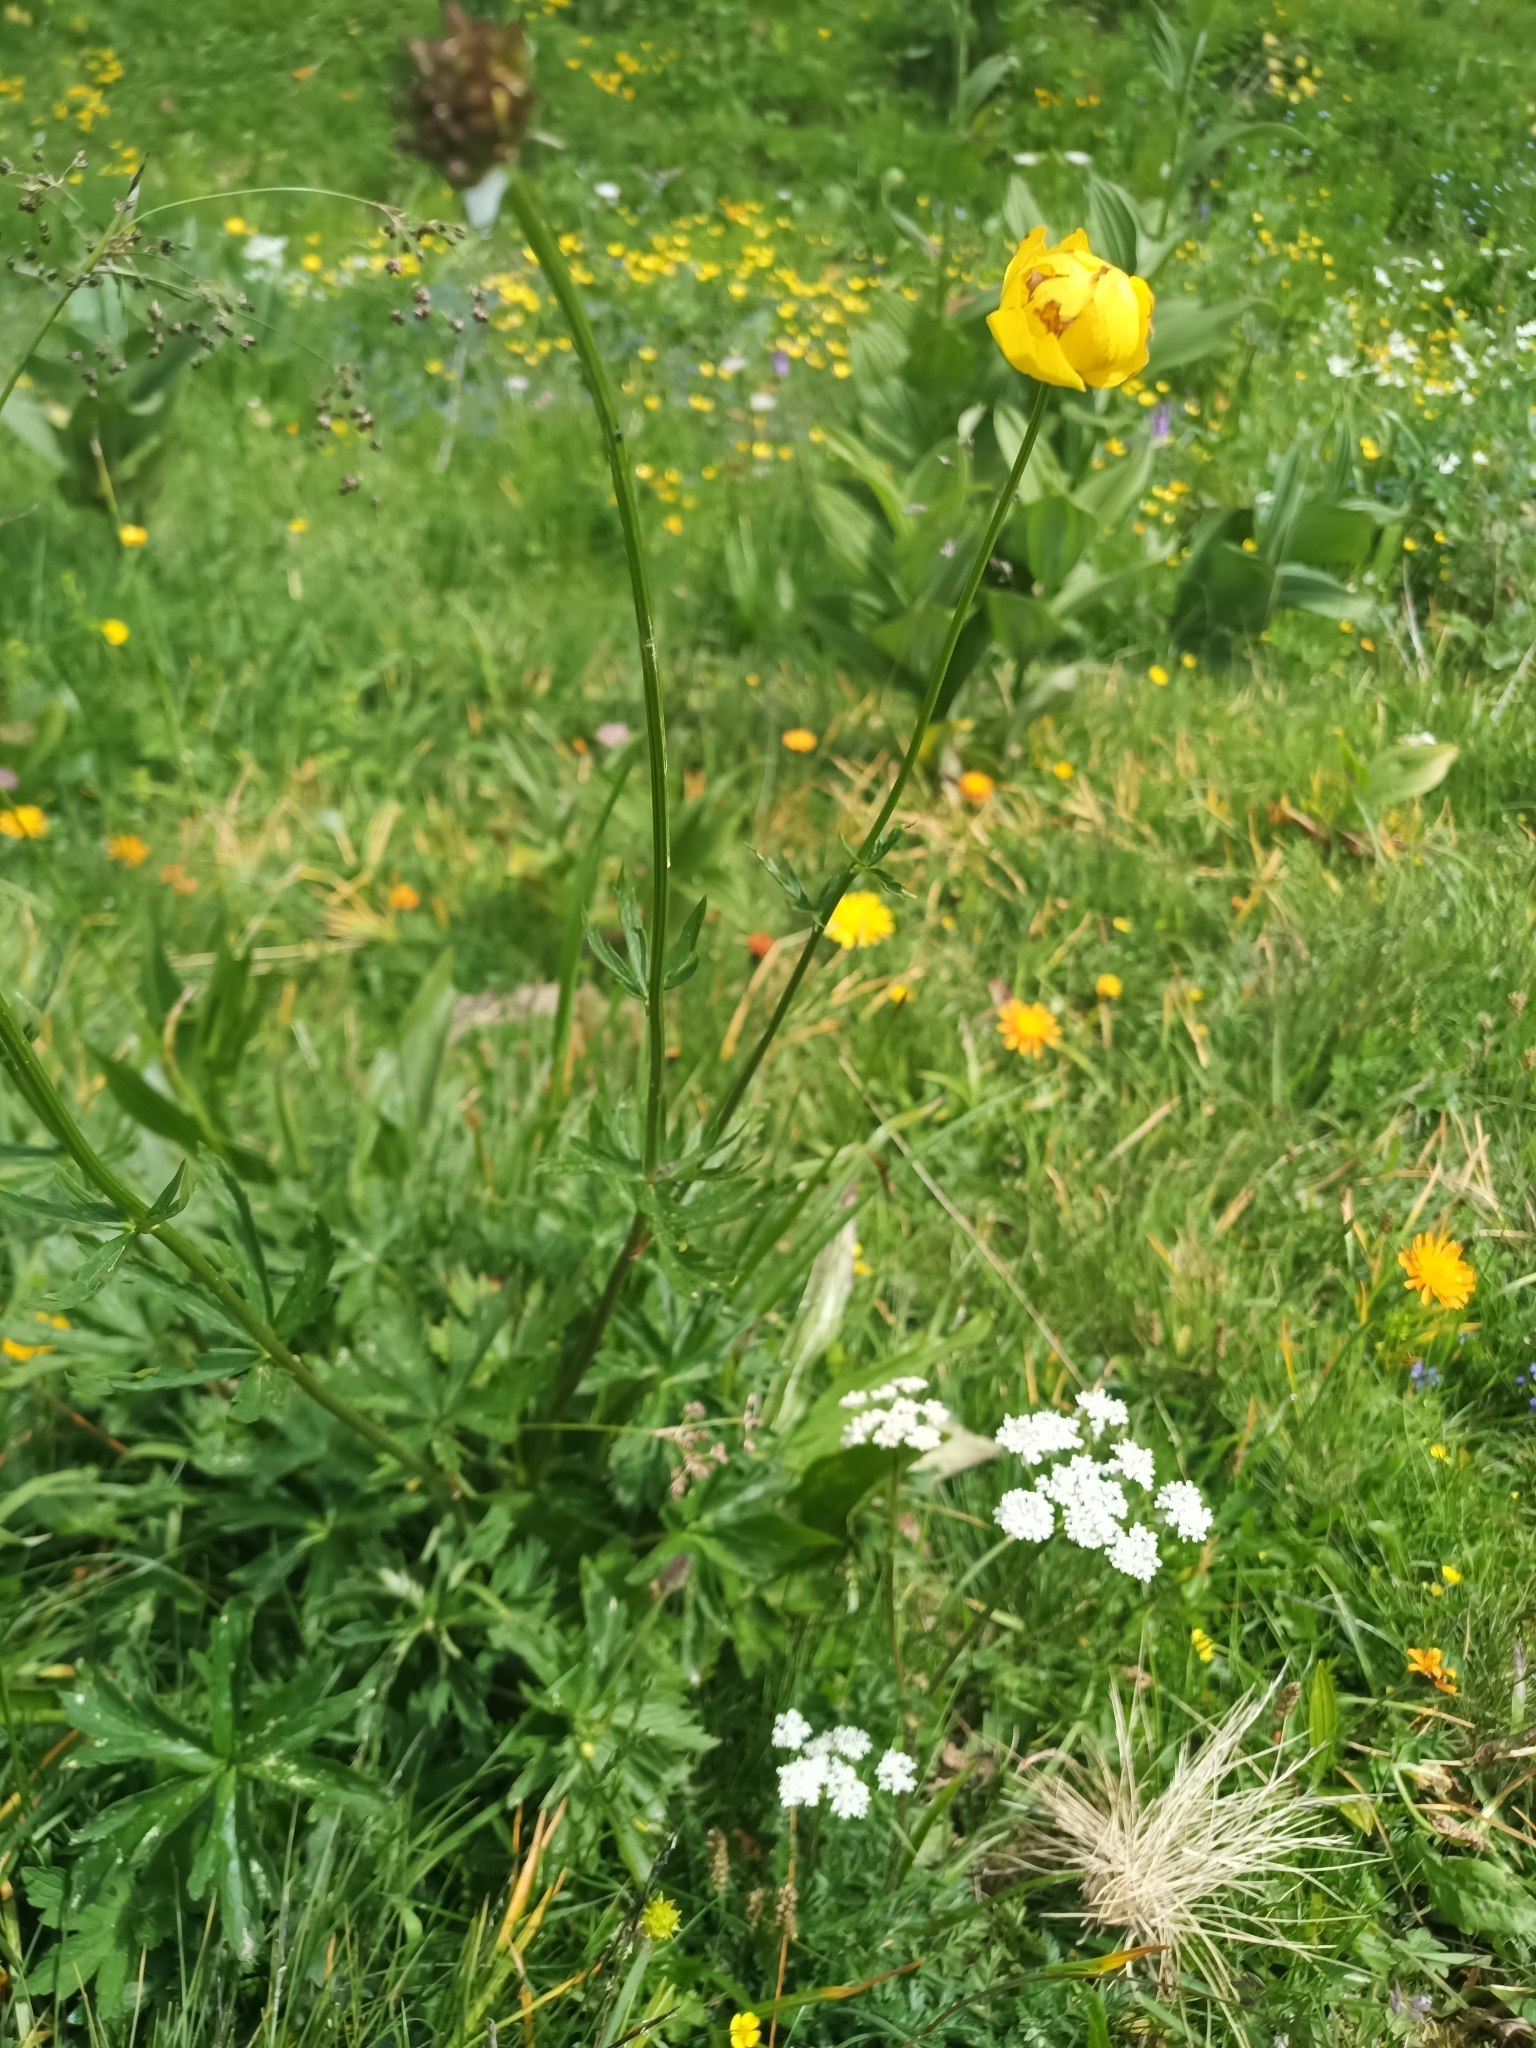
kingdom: Plantae
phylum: Tracheophyta
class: Magnoliopsida
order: Ranunculales
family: Ranunculaceae
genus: Trollius
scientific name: Trollius europaeus
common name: European globeflower
